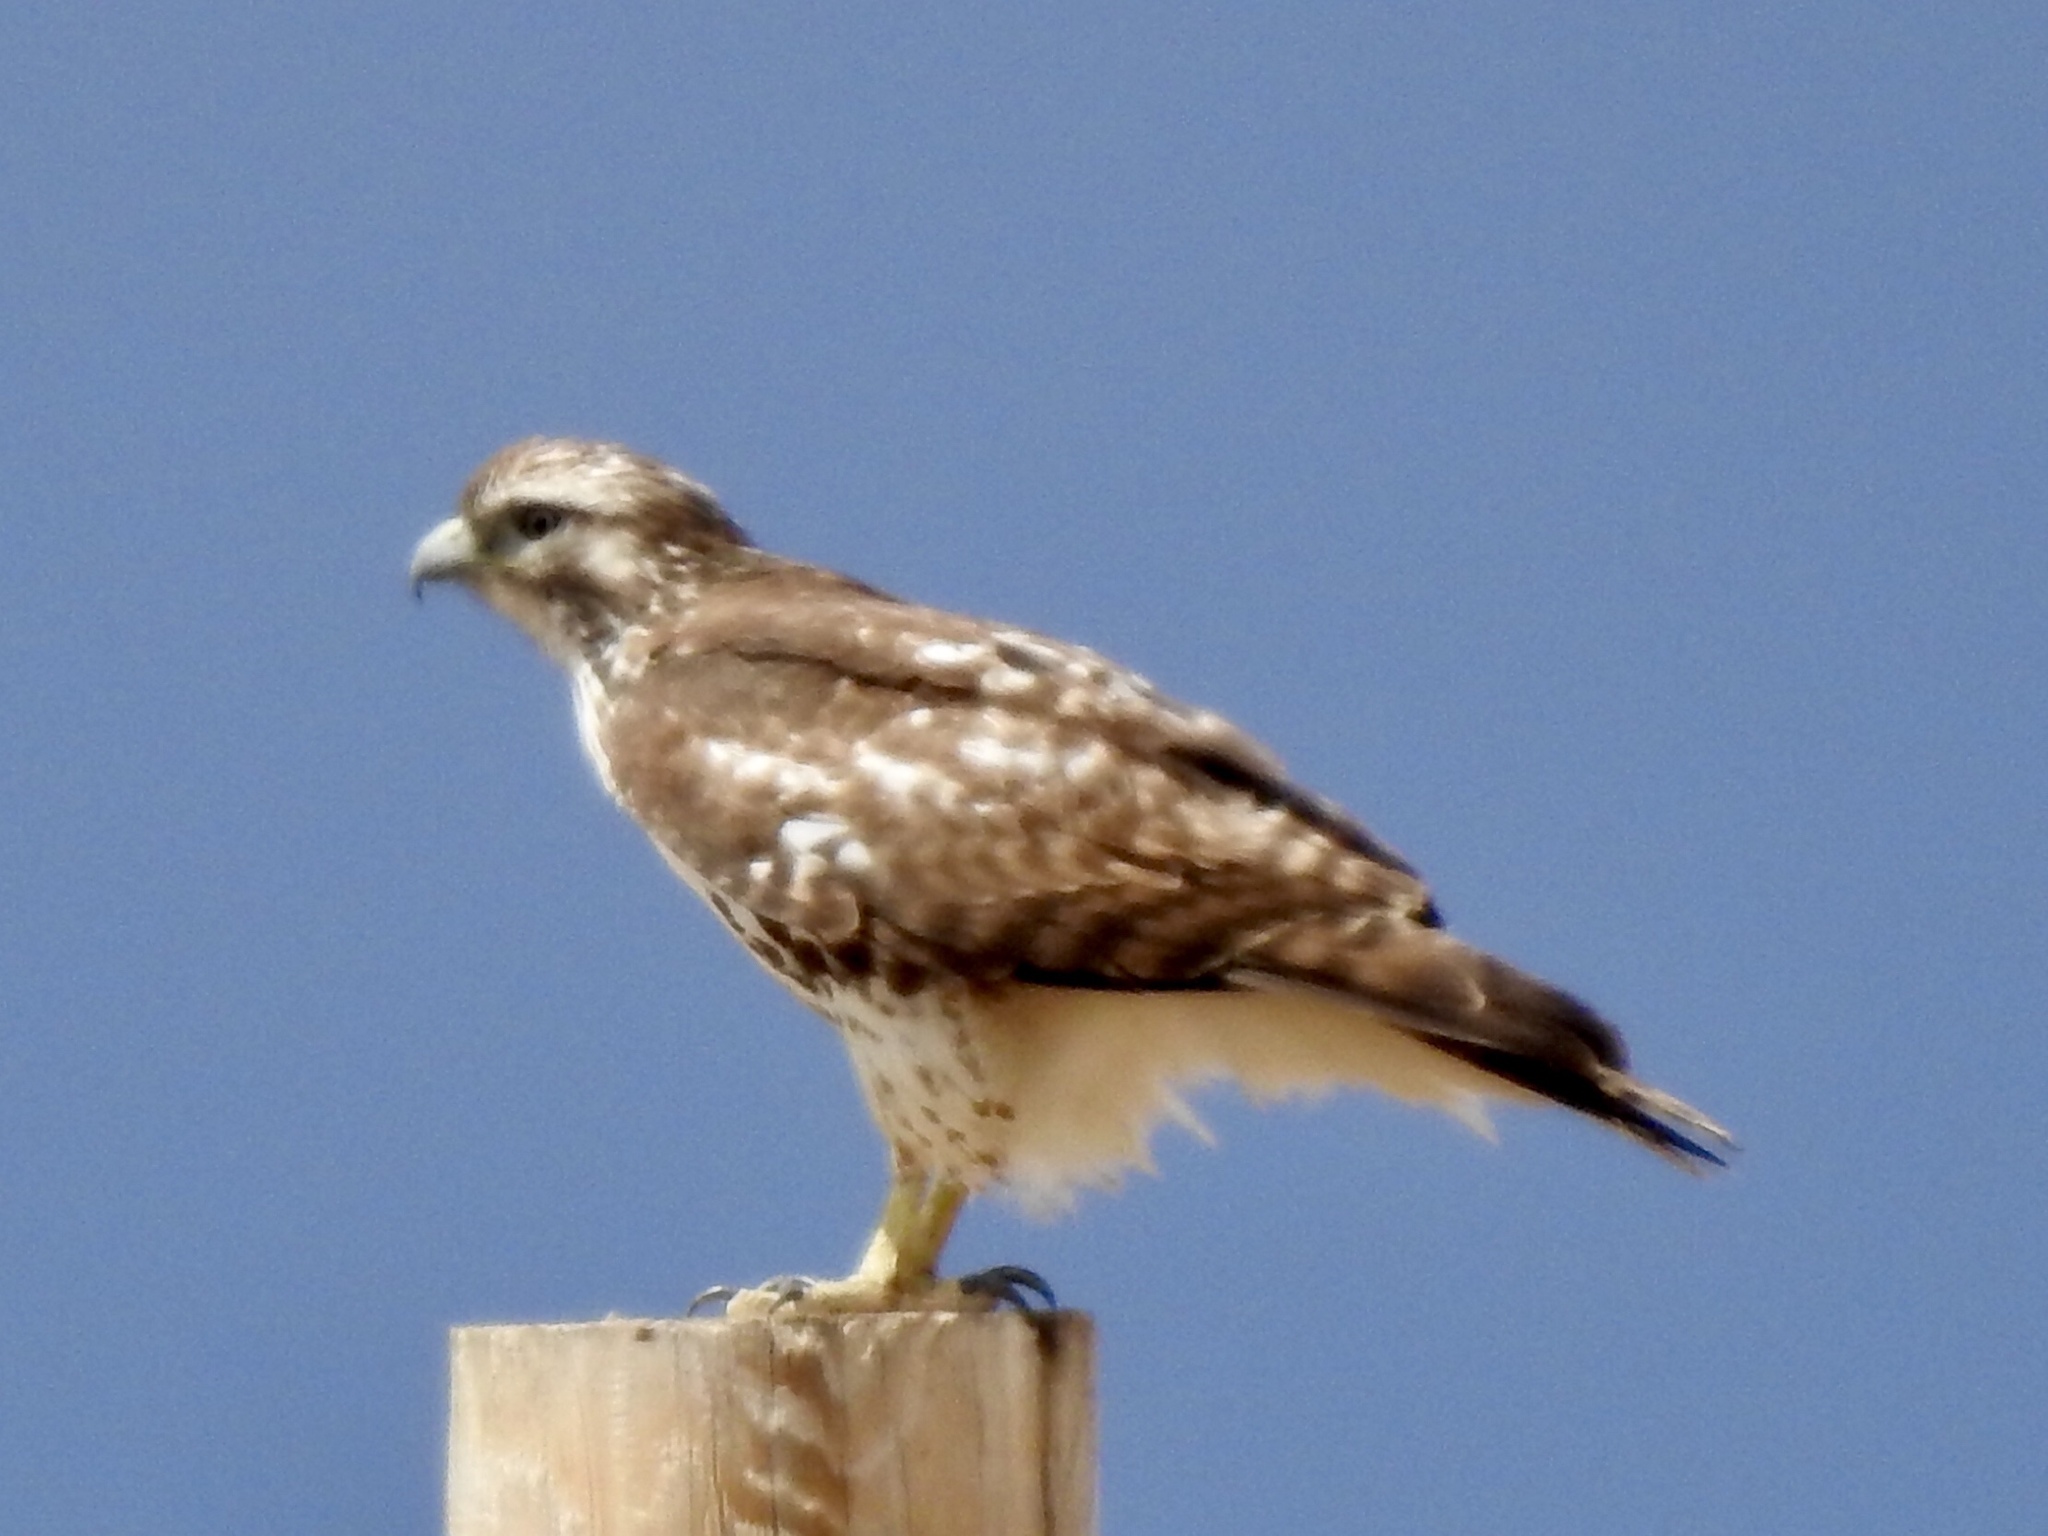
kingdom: Animalia
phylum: Chordata
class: Aves
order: Accipitriformes
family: Accipitridae
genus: Buteo
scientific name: Buteo jamaicensis
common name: Red-tailed hawk
